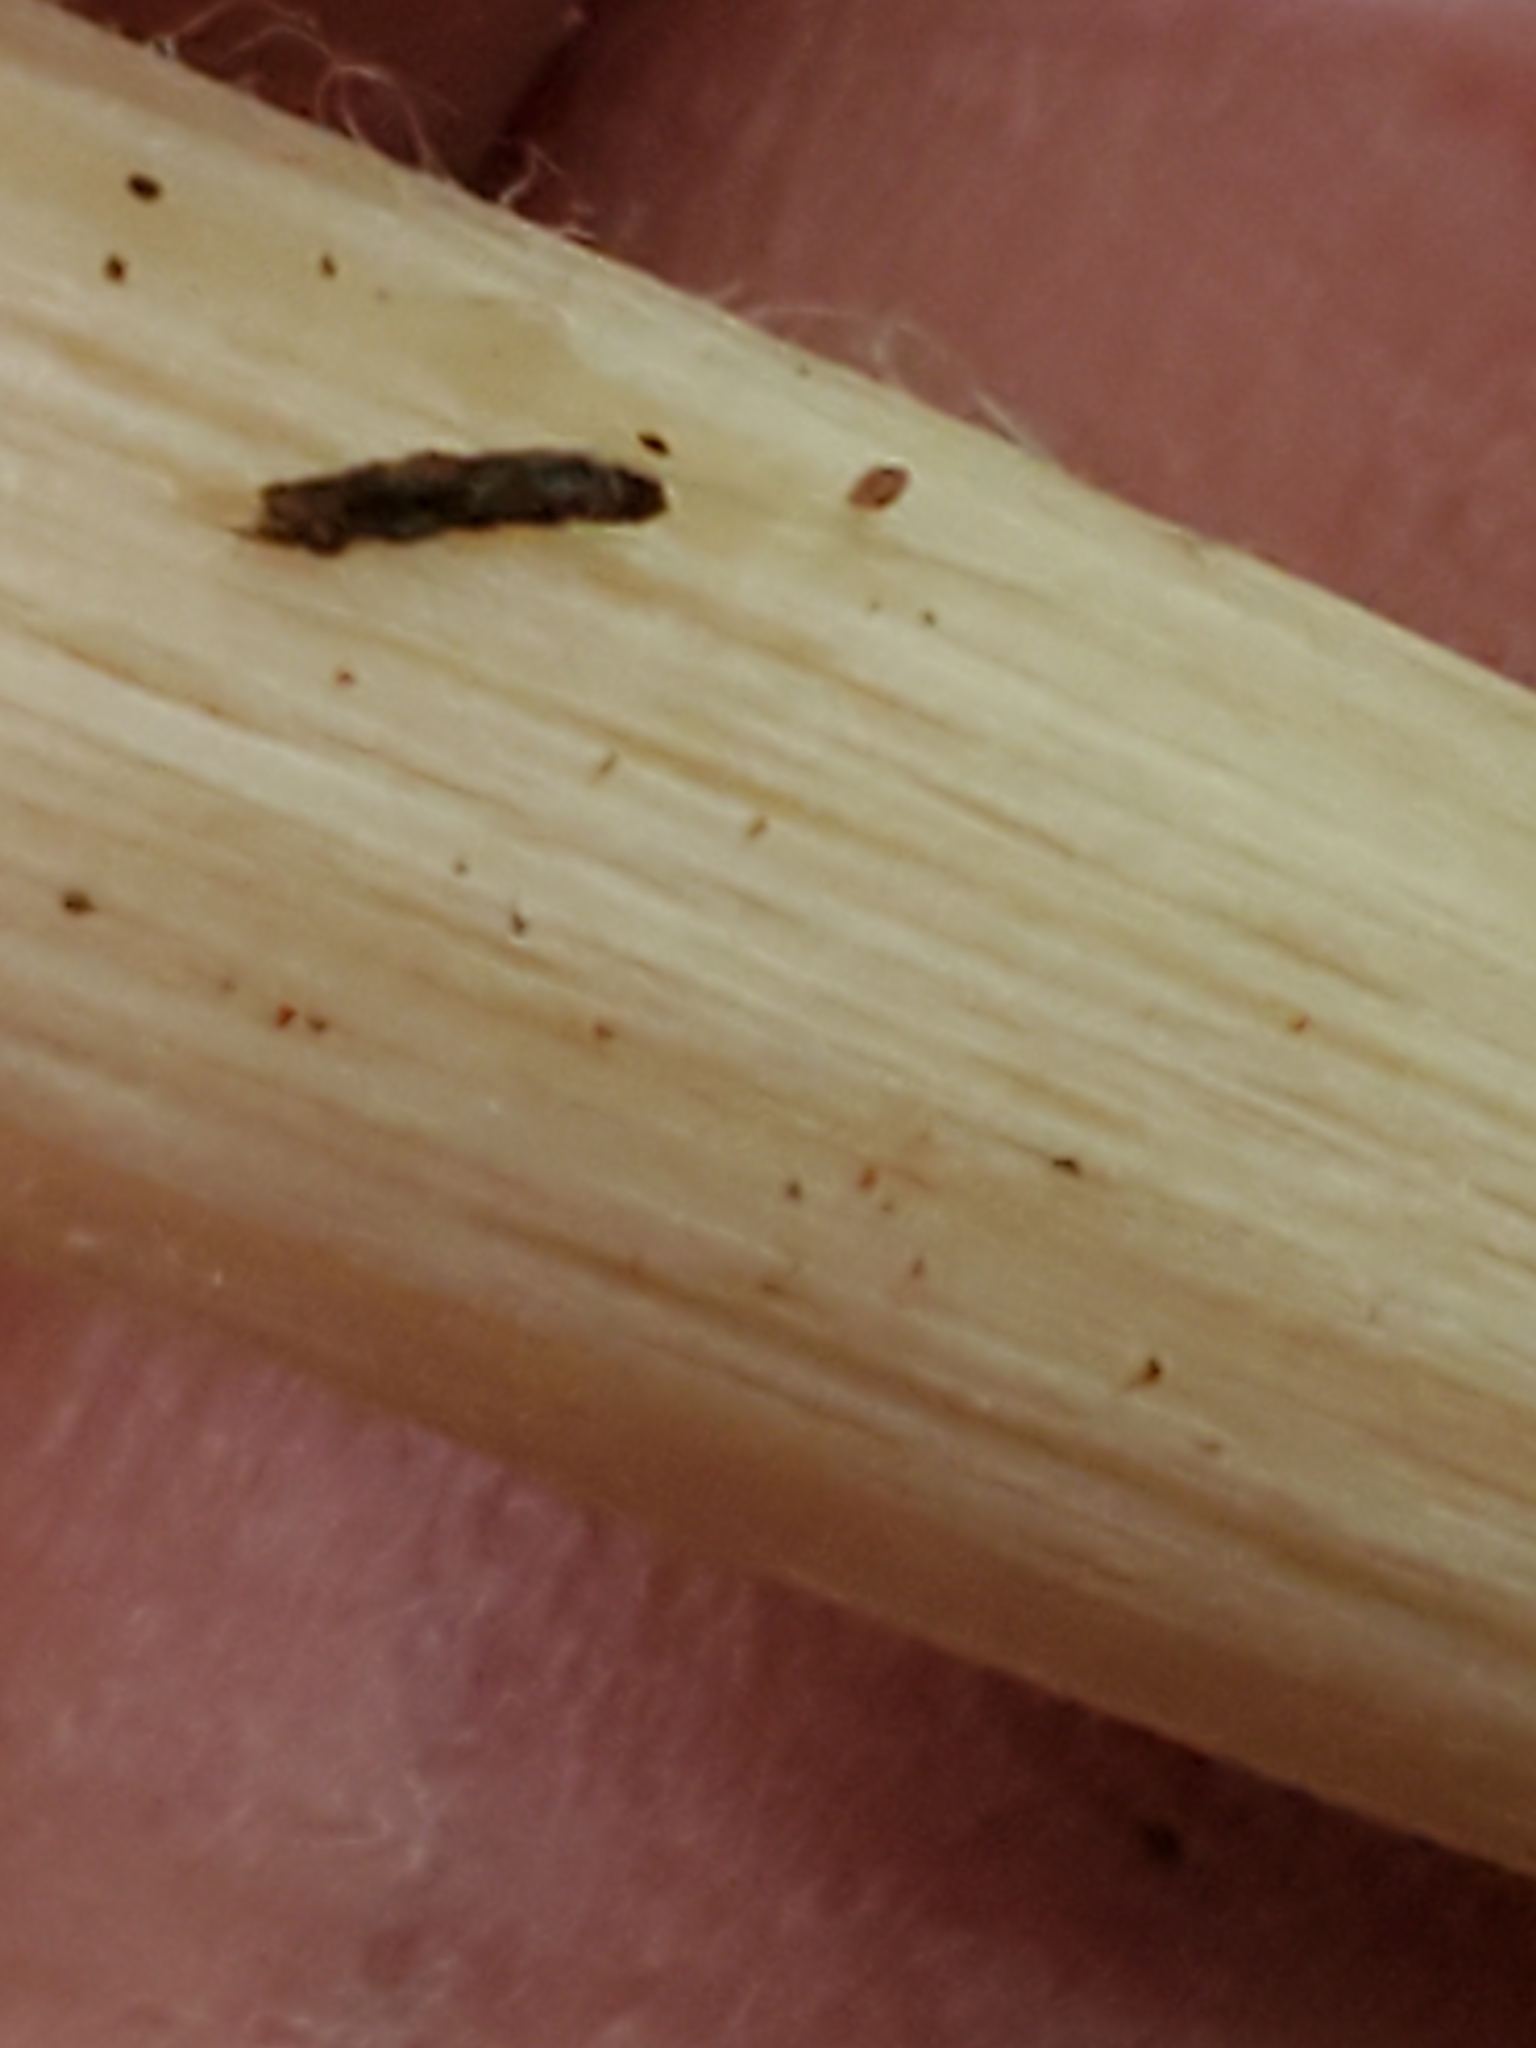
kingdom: Fungi
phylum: Basidiomycota
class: Agaricomycetes
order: Agaricales
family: Entolomataceae
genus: Entoloma
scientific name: Entoloma strictius
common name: Straight-stalked entoloma
